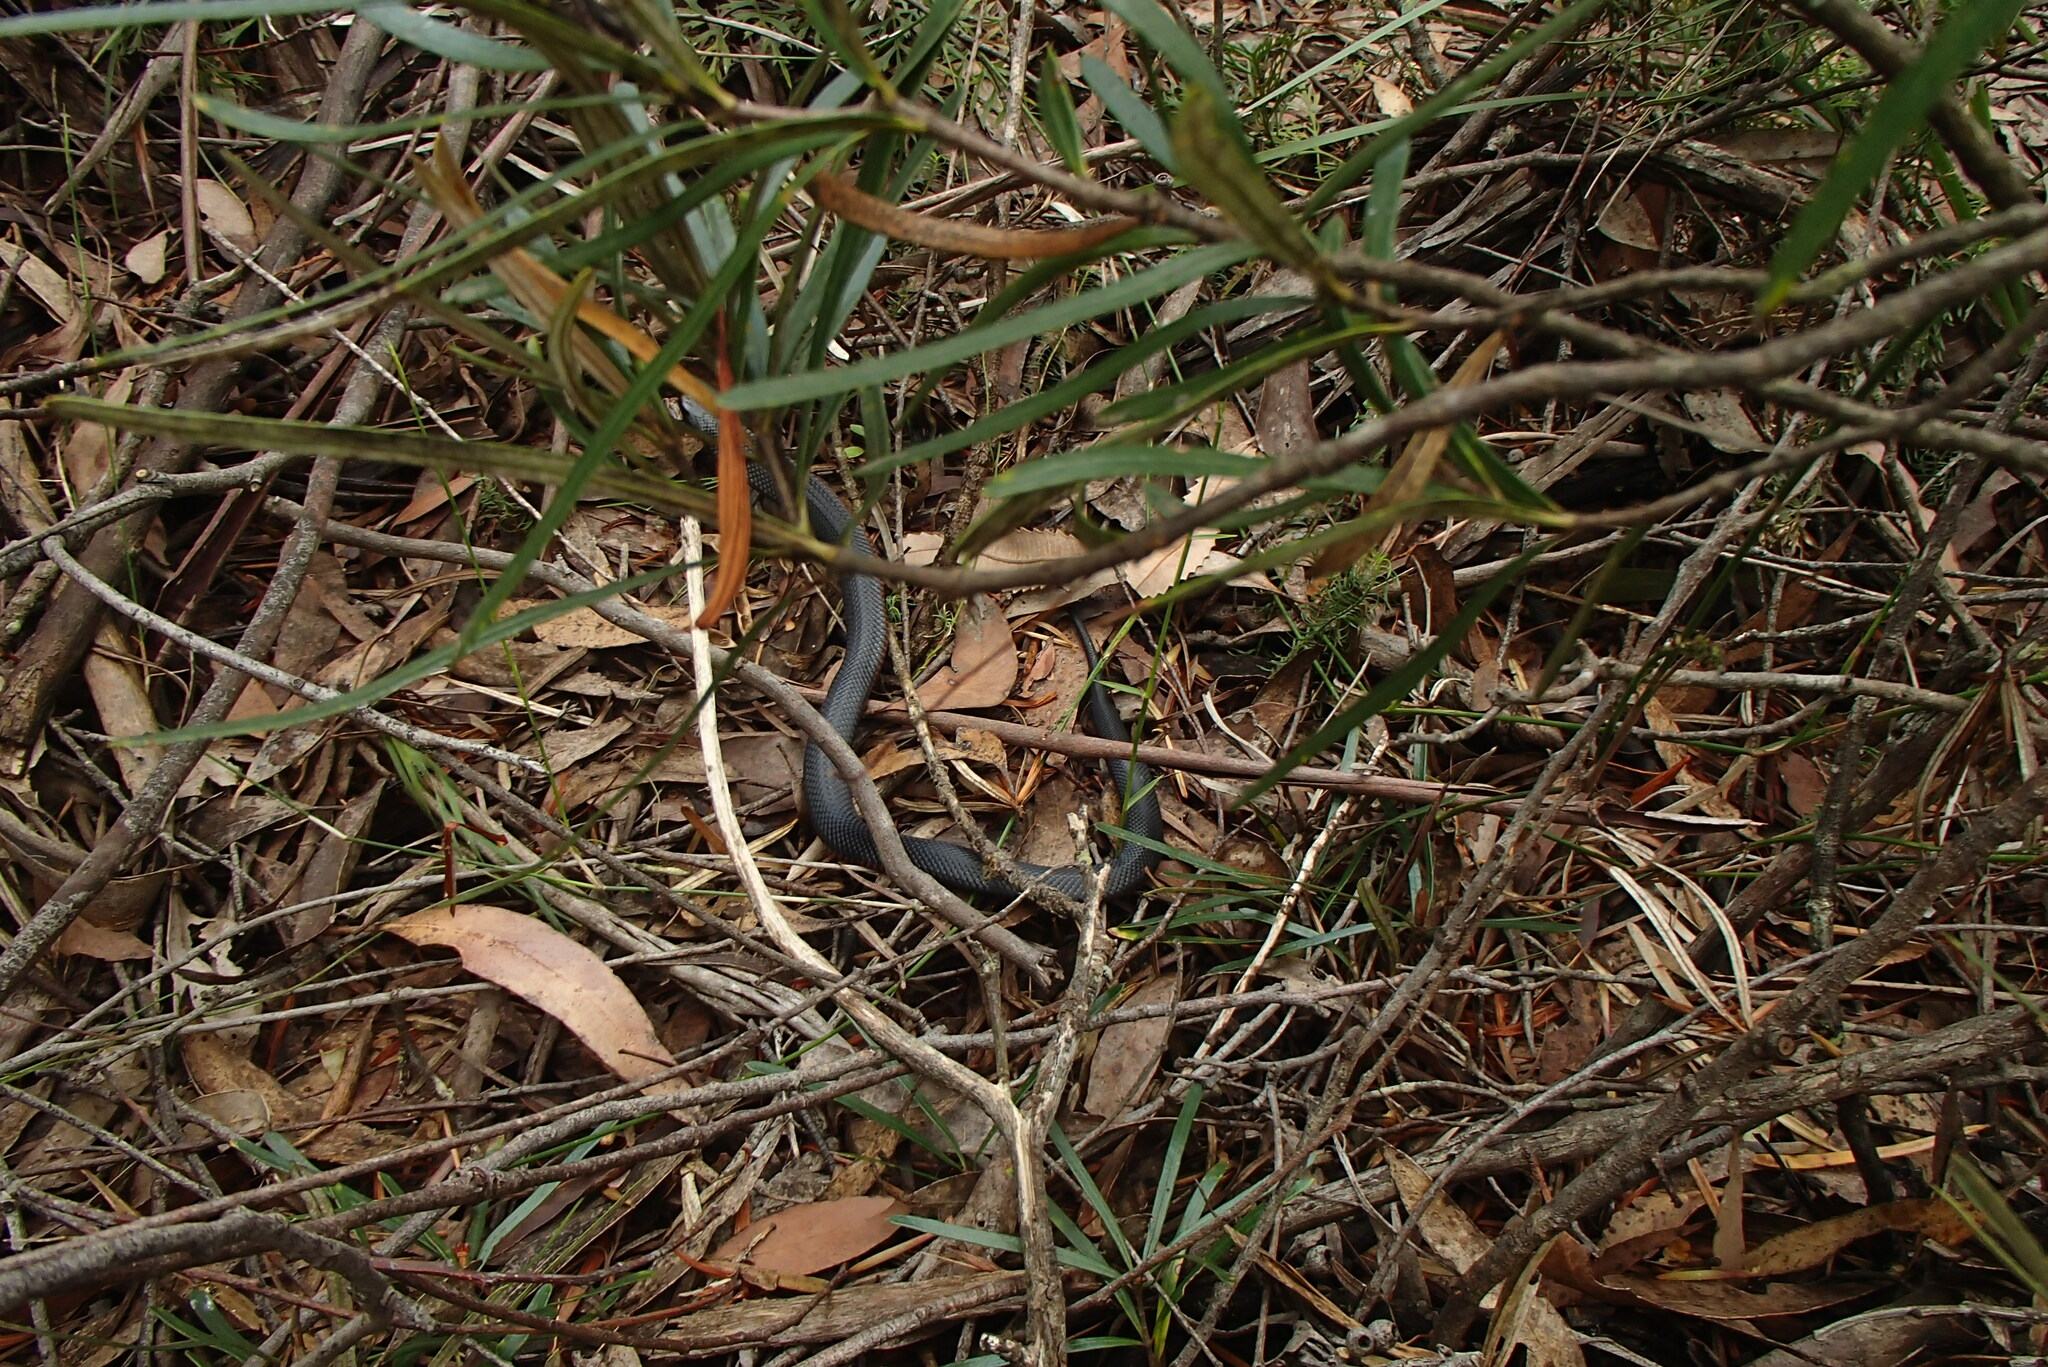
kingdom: Animalia
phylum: Chordata
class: Squamata
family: Elapidae
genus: Pseudechis
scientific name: Pseudechis porphyriacus
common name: Australian black snake
